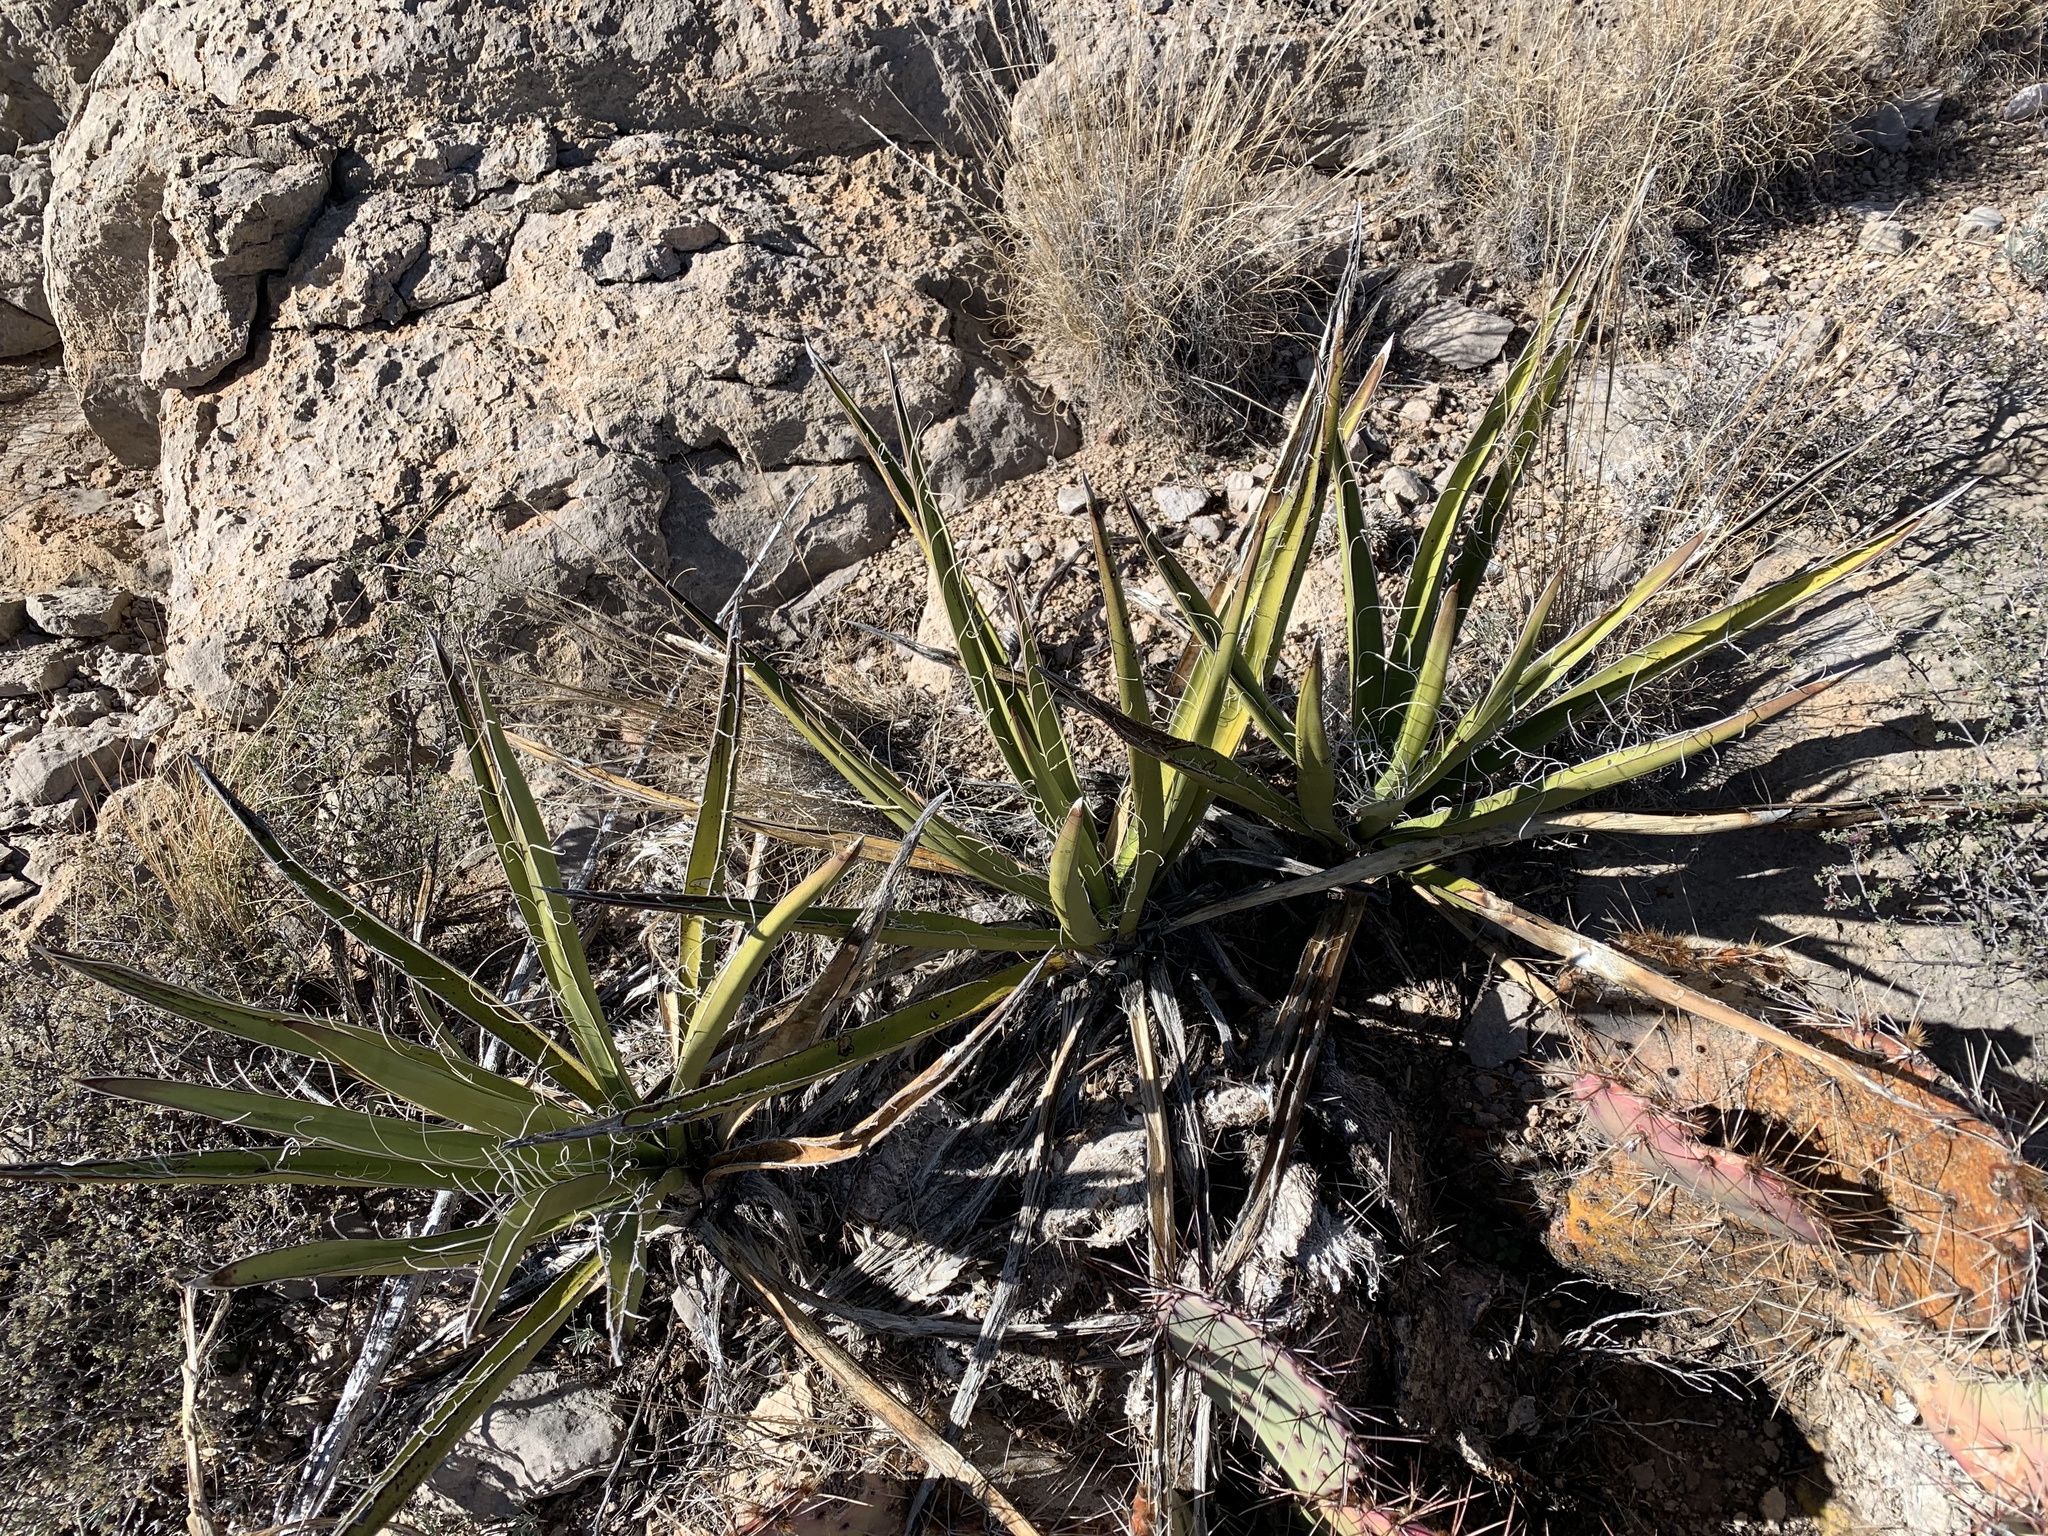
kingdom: Plantae
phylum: Tracheophyta
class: Liliopsida
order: Asparagales
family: Asparagaceae
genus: Yucca
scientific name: Yucca baccata
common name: Banana yucca
